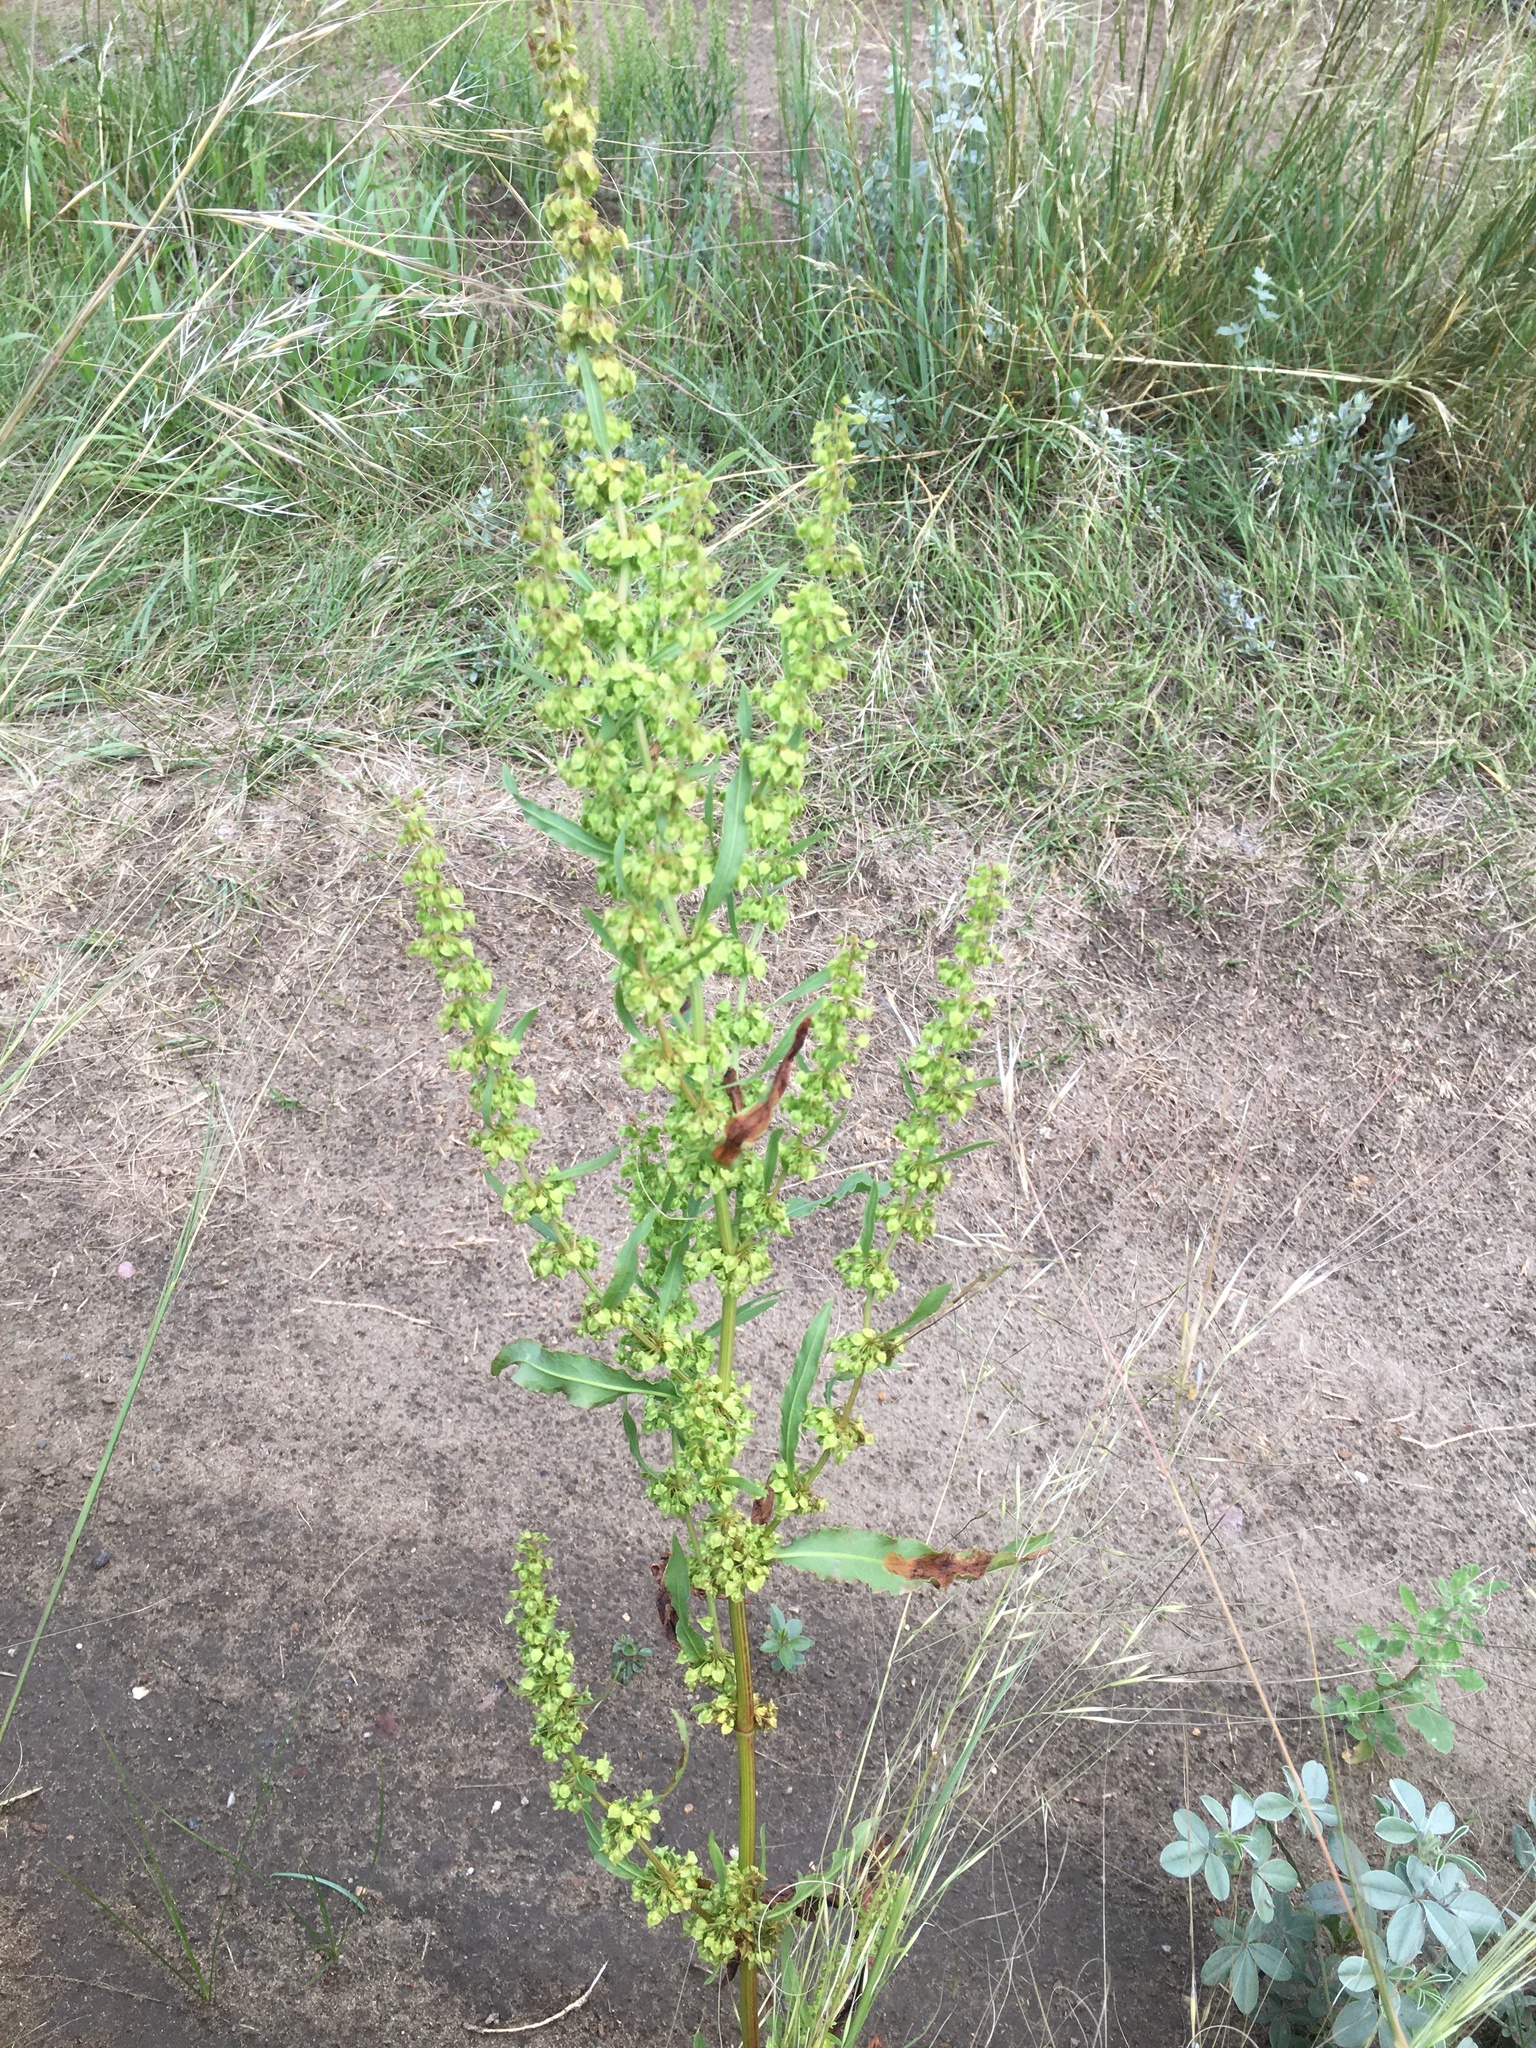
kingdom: Plantae
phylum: Tracheophyta
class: Magnoliopsida
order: Caryophyllales
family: Polygonaceae
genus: Rumex
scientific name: Rumex stenophyllus
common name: Narrowleaf dock
